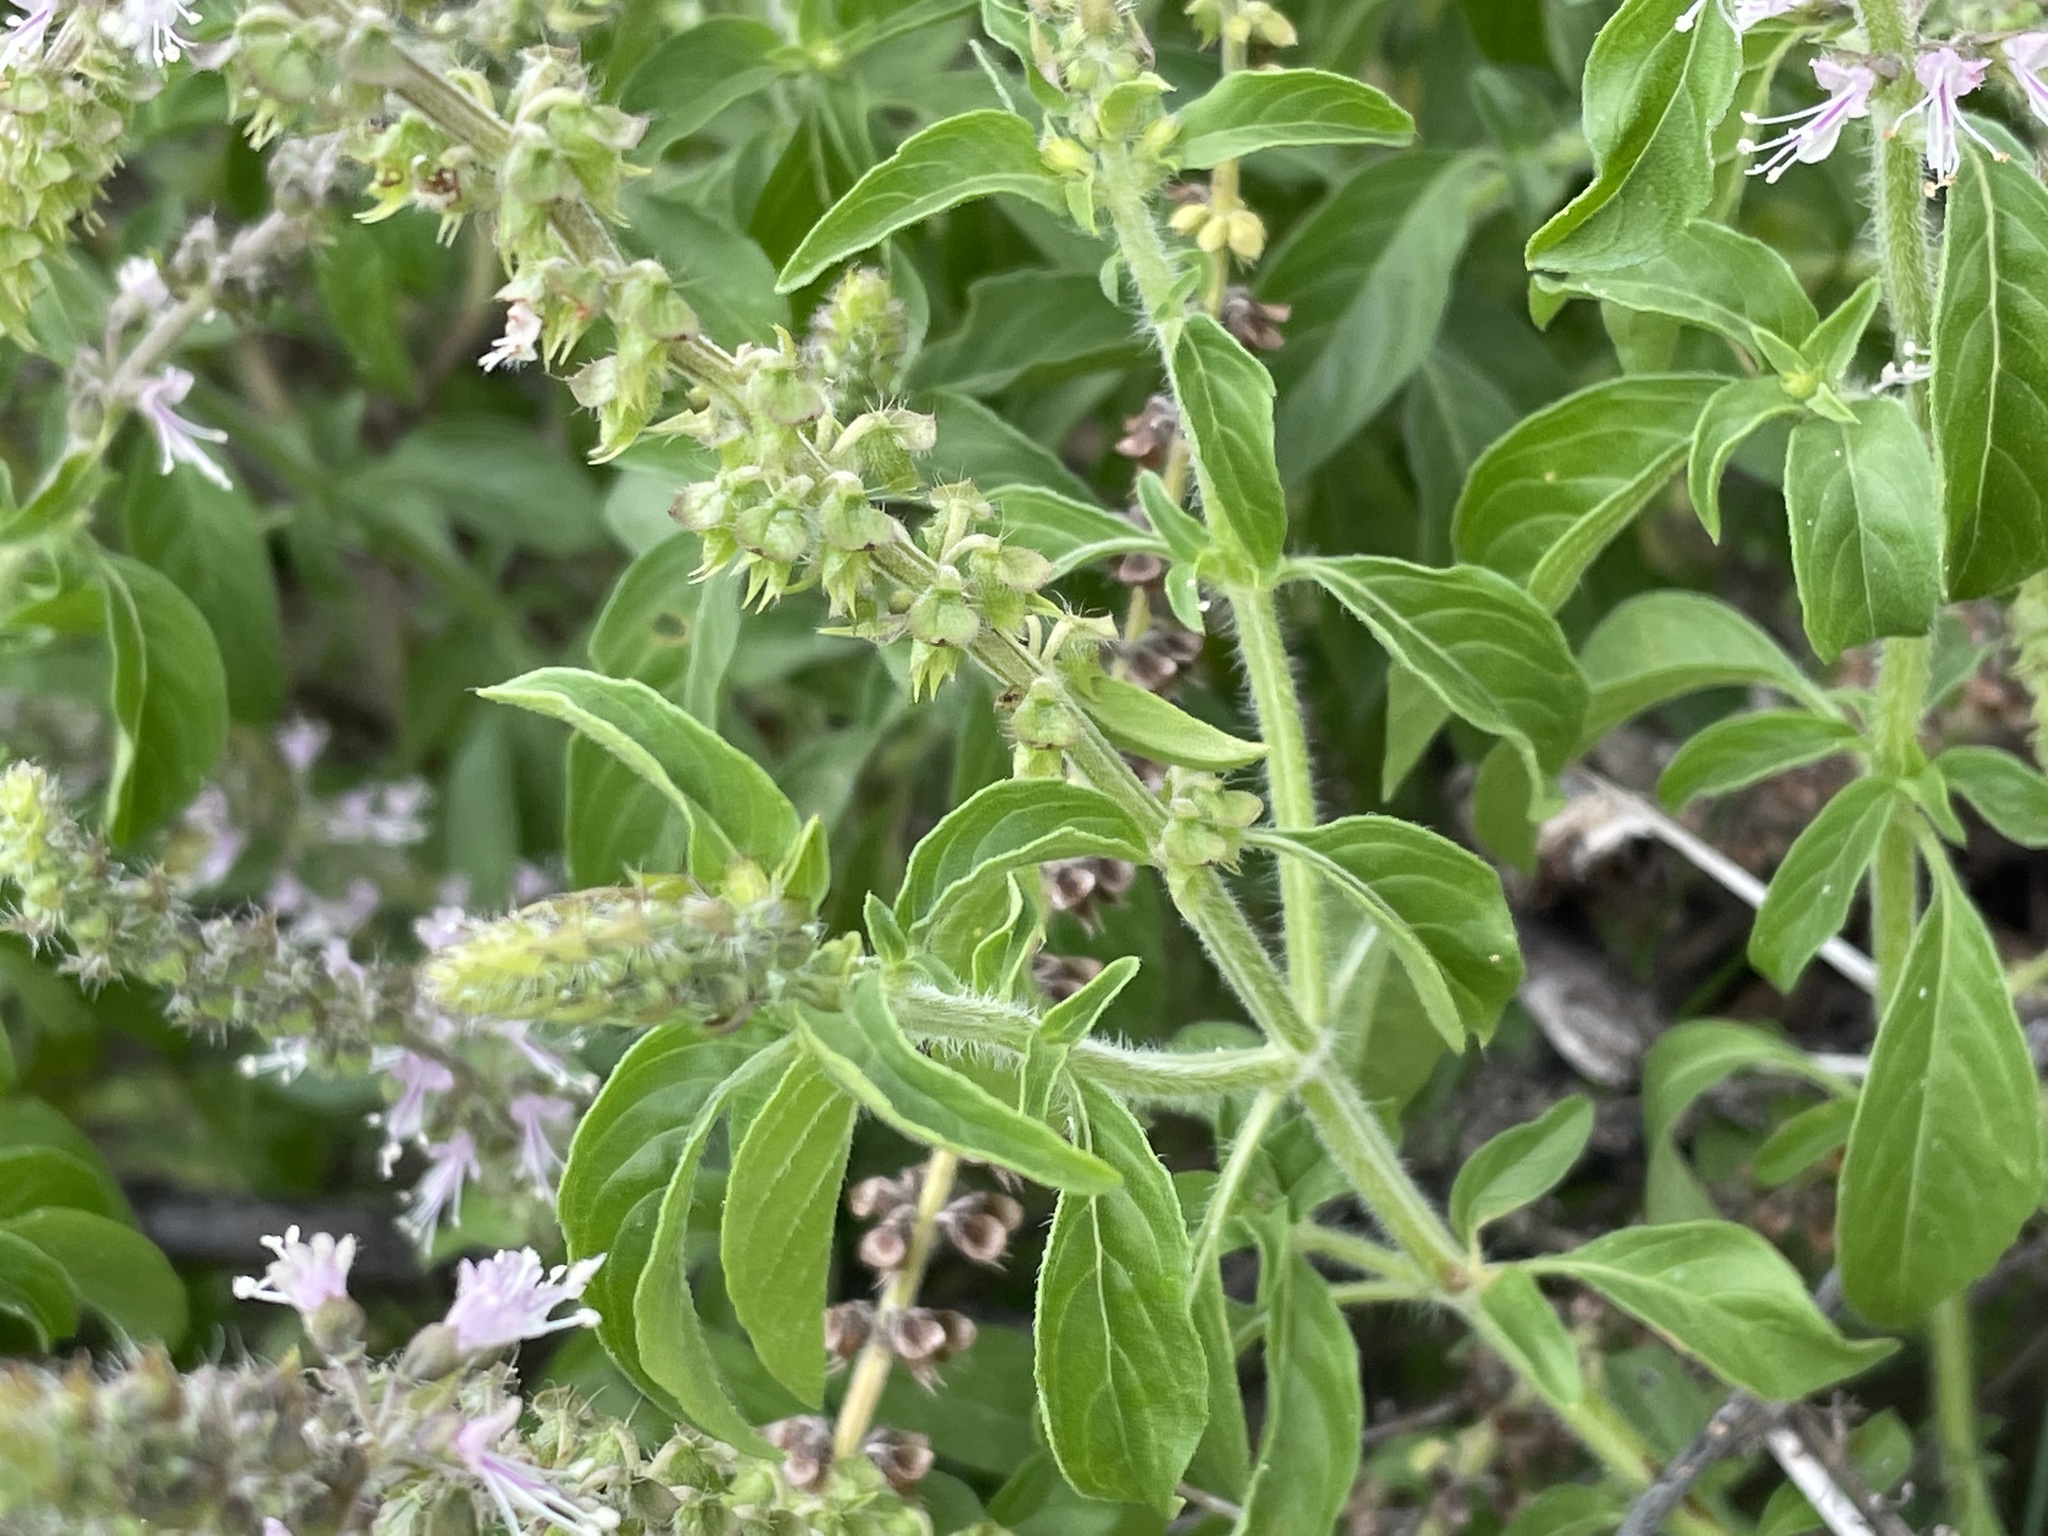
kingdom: Plantae
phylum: Tracheophyta
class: Magnoliopsida
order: Lamiales
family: Lamiaceae
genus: Ocimum
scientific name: Ocimum americanum
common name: American basil
